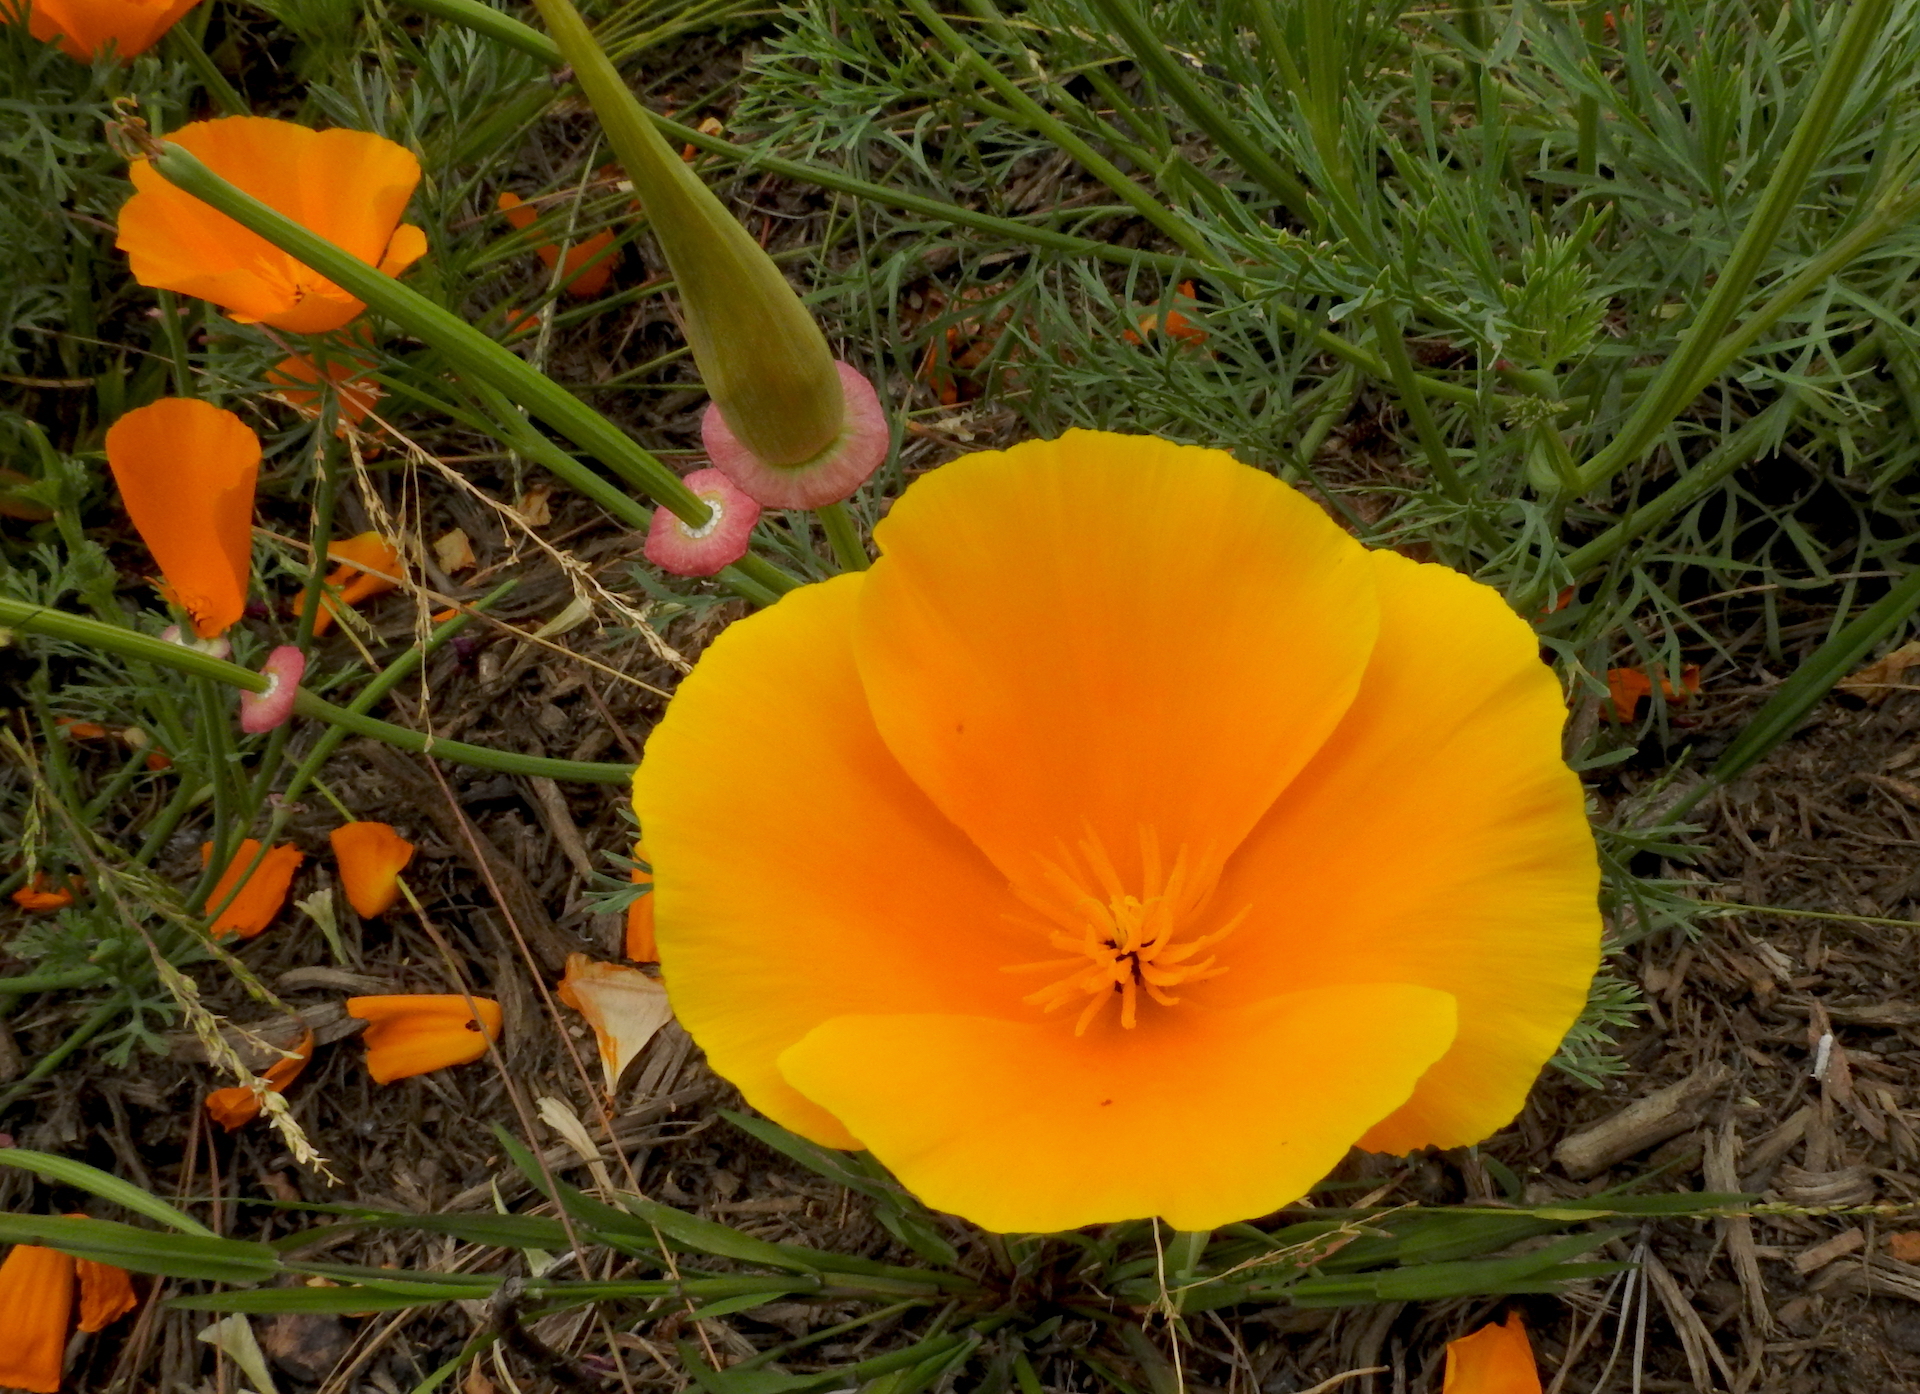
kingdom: Plantae
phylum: Tracheophyta
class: Magnoliopsida
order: Ranunculales
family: Papaveraceae
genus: Eschscholzia
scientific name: Eschscholzia californica
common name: California poppy
